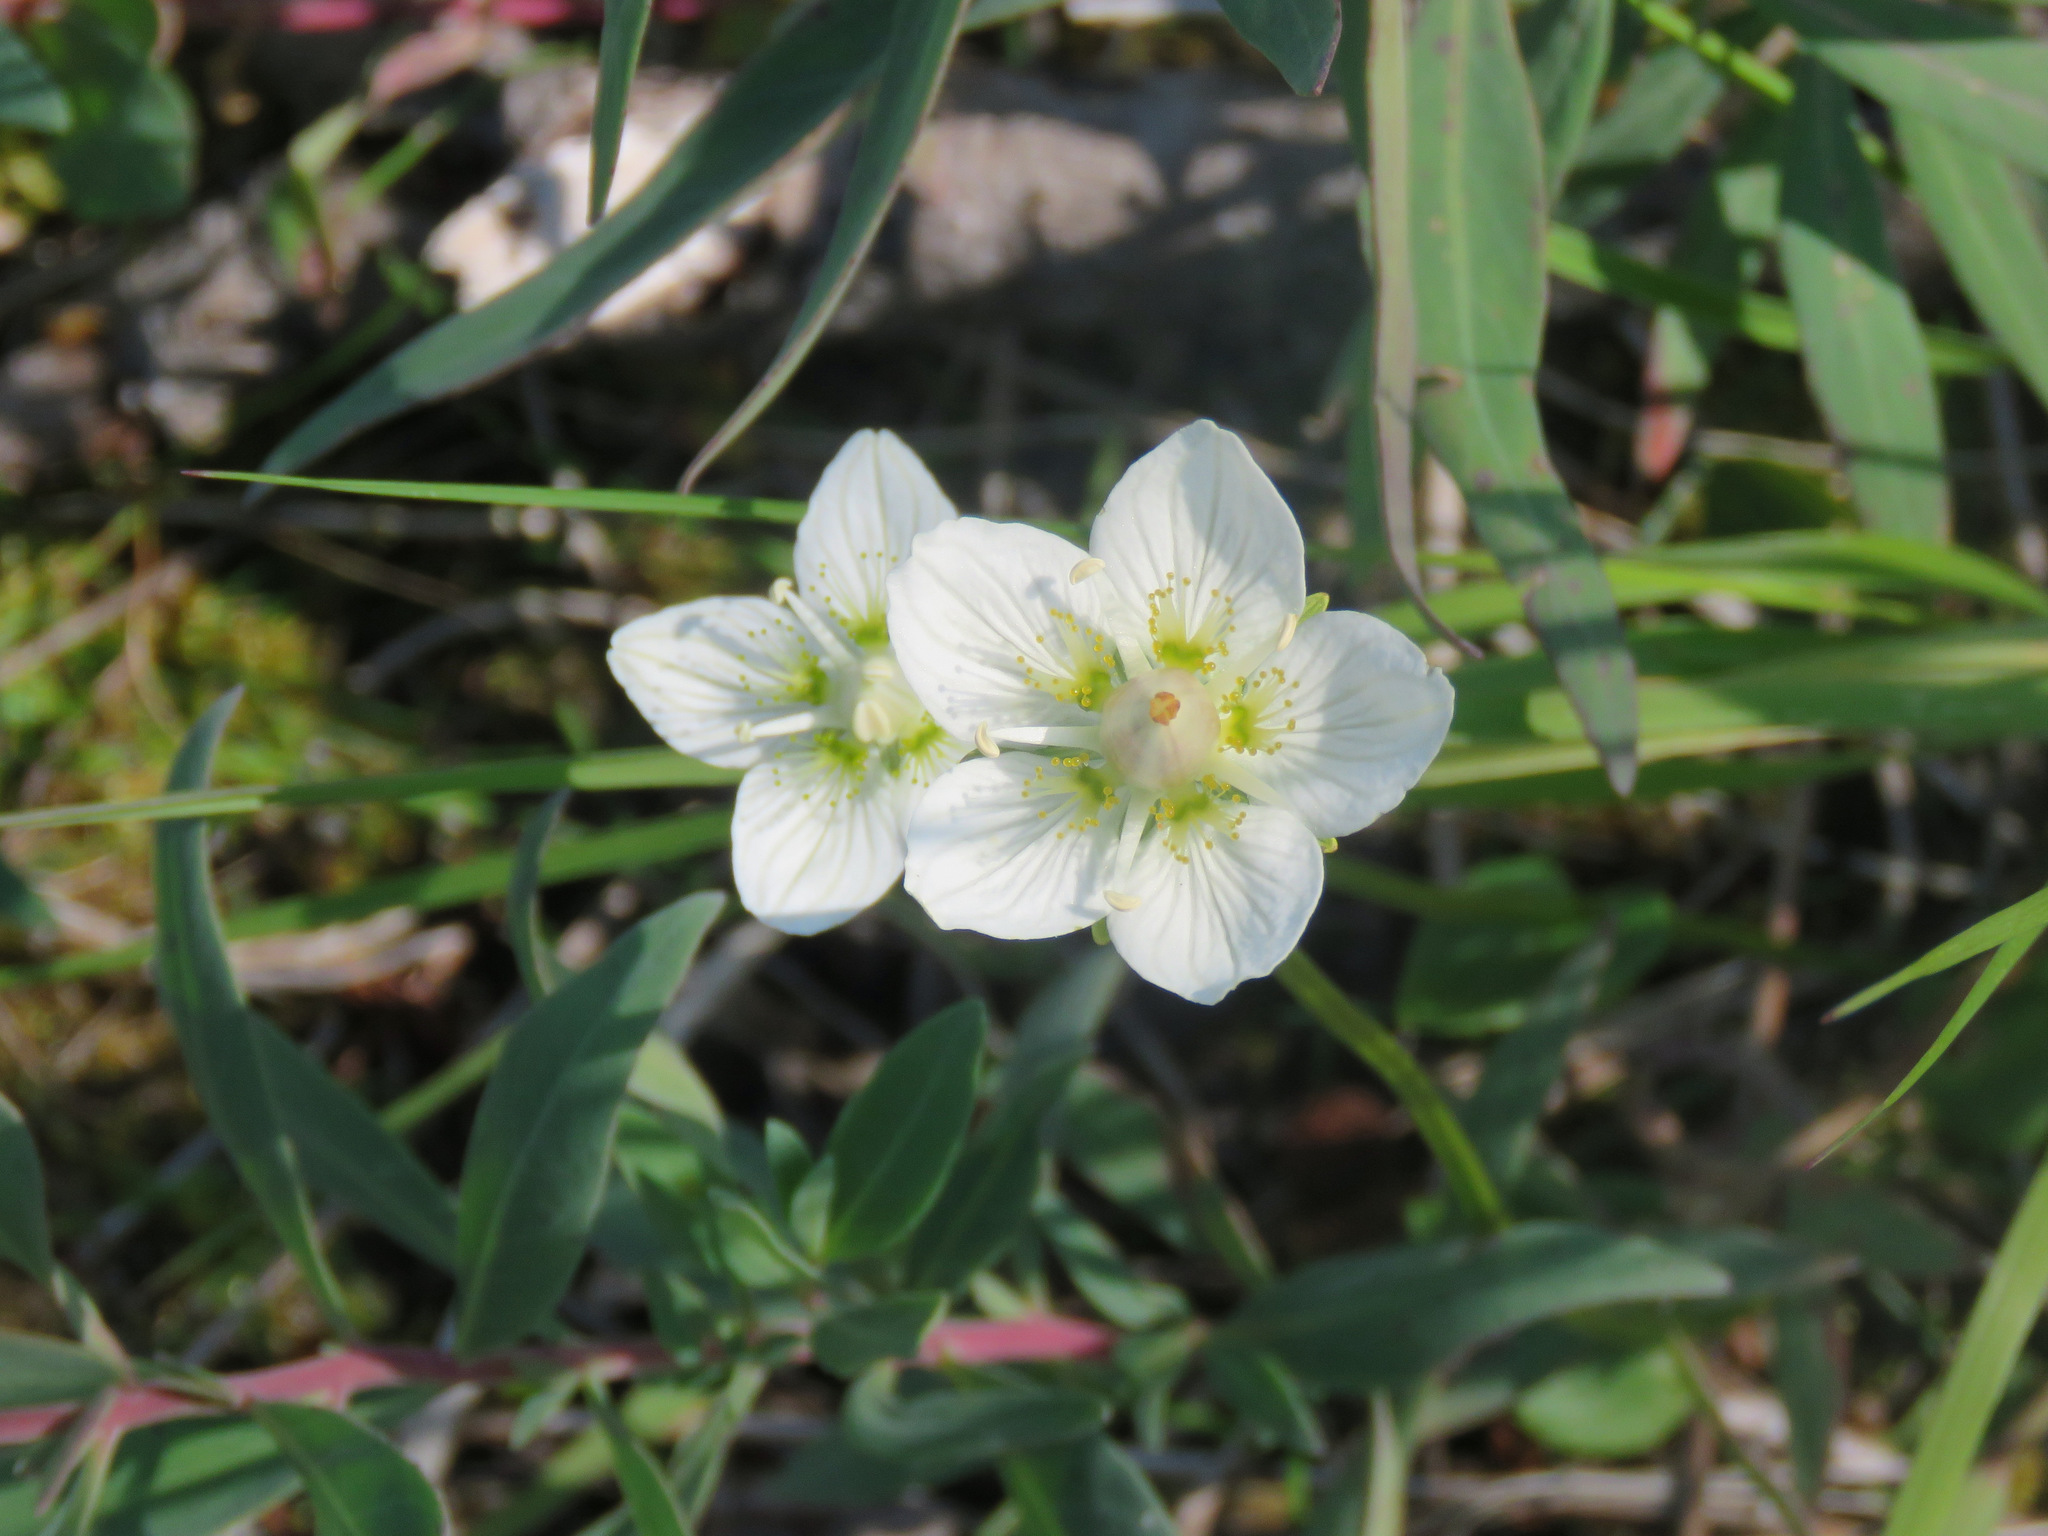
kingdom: Plantae
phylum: Tracheophyta
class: Magnoliopsida
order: Celastrales
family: Parnassiaceae
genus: Parnassia
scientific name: Parnassia palustris
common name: Grass-of-parnassus
